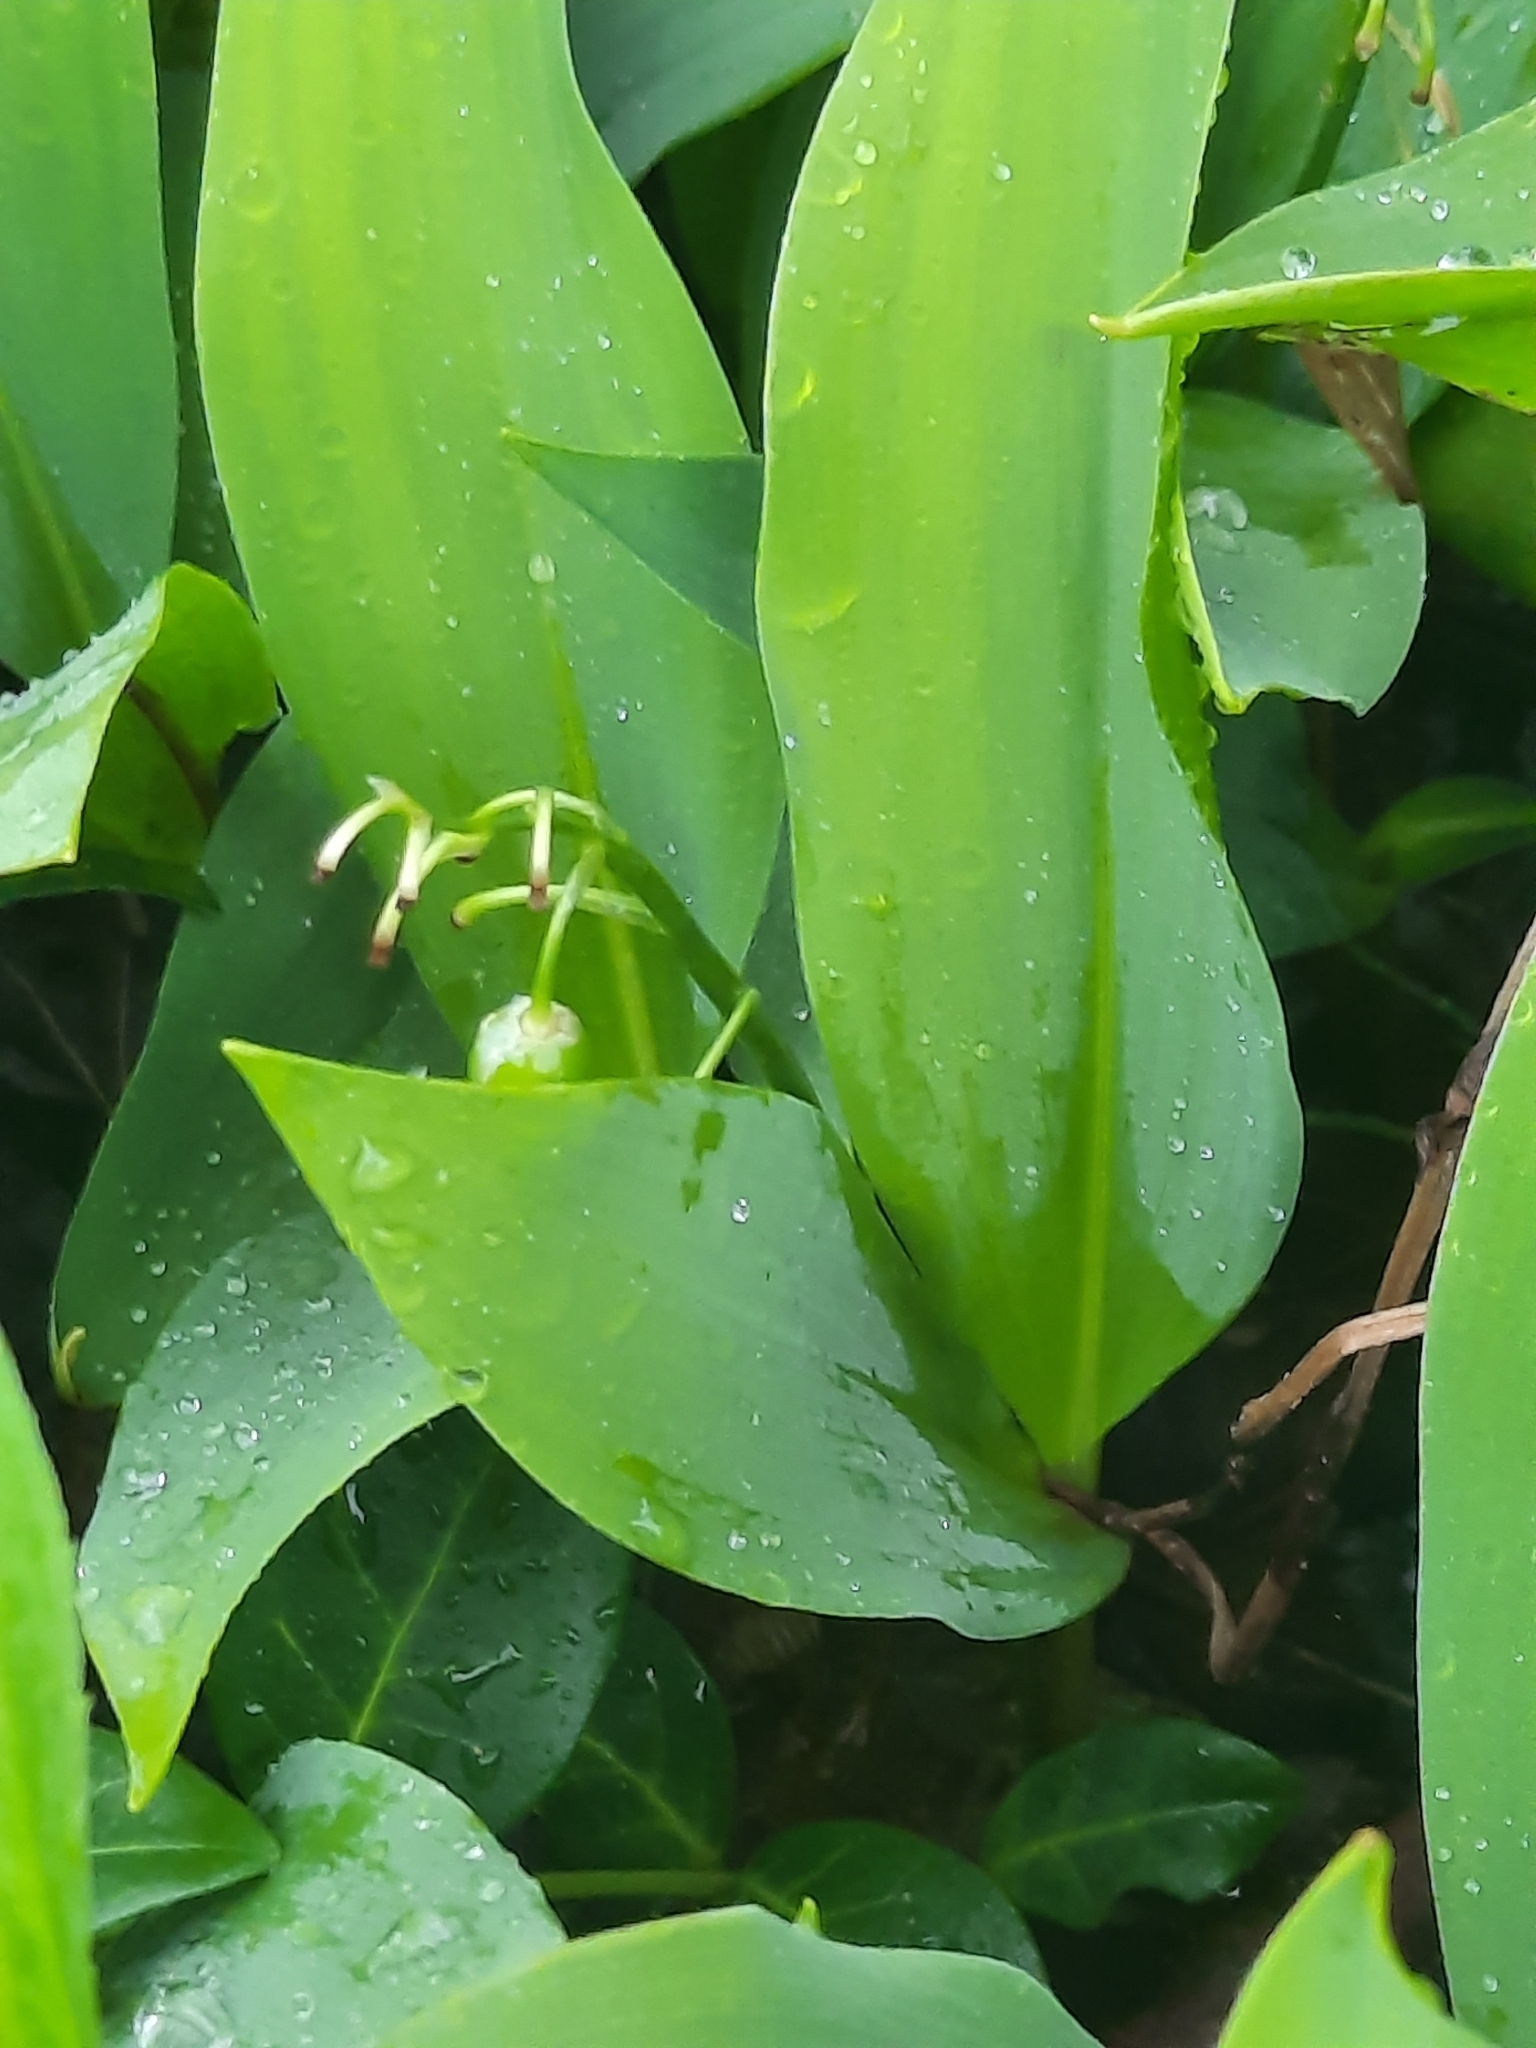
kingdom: Plantae
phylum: Tracheophyta
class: Liliopsida
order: Asparagales
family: Asparagaceae
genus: Convallaria
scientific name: Convallaria majalis
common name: Lily-of-the-valley
